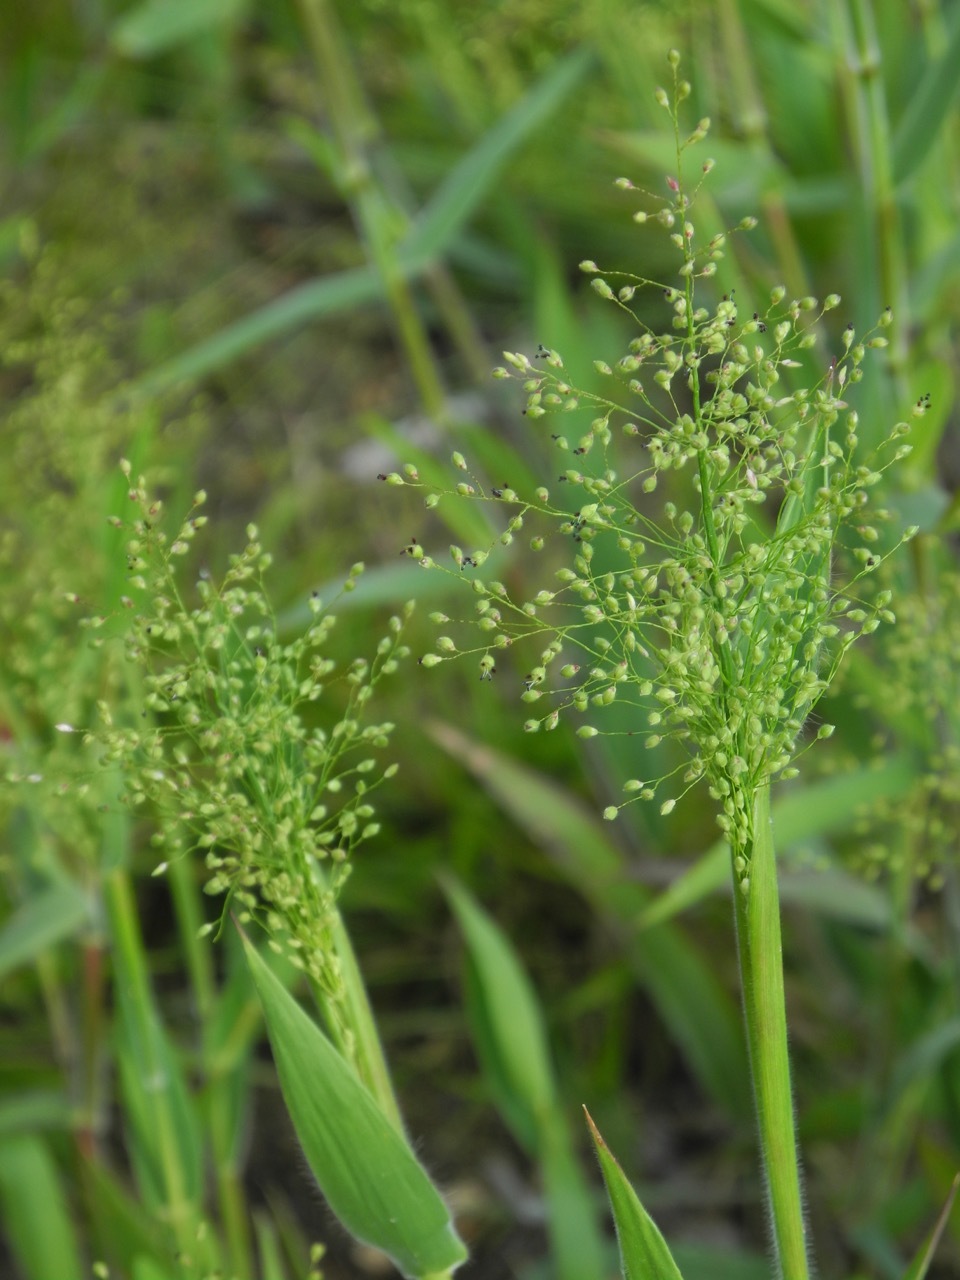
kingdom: Plantae
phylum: Tracheophyta
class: Liliopsida
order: Poales
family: Poaceae
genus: Dichanthelium
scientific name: Dichanthelium scoparium
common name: Velvety panic grass
